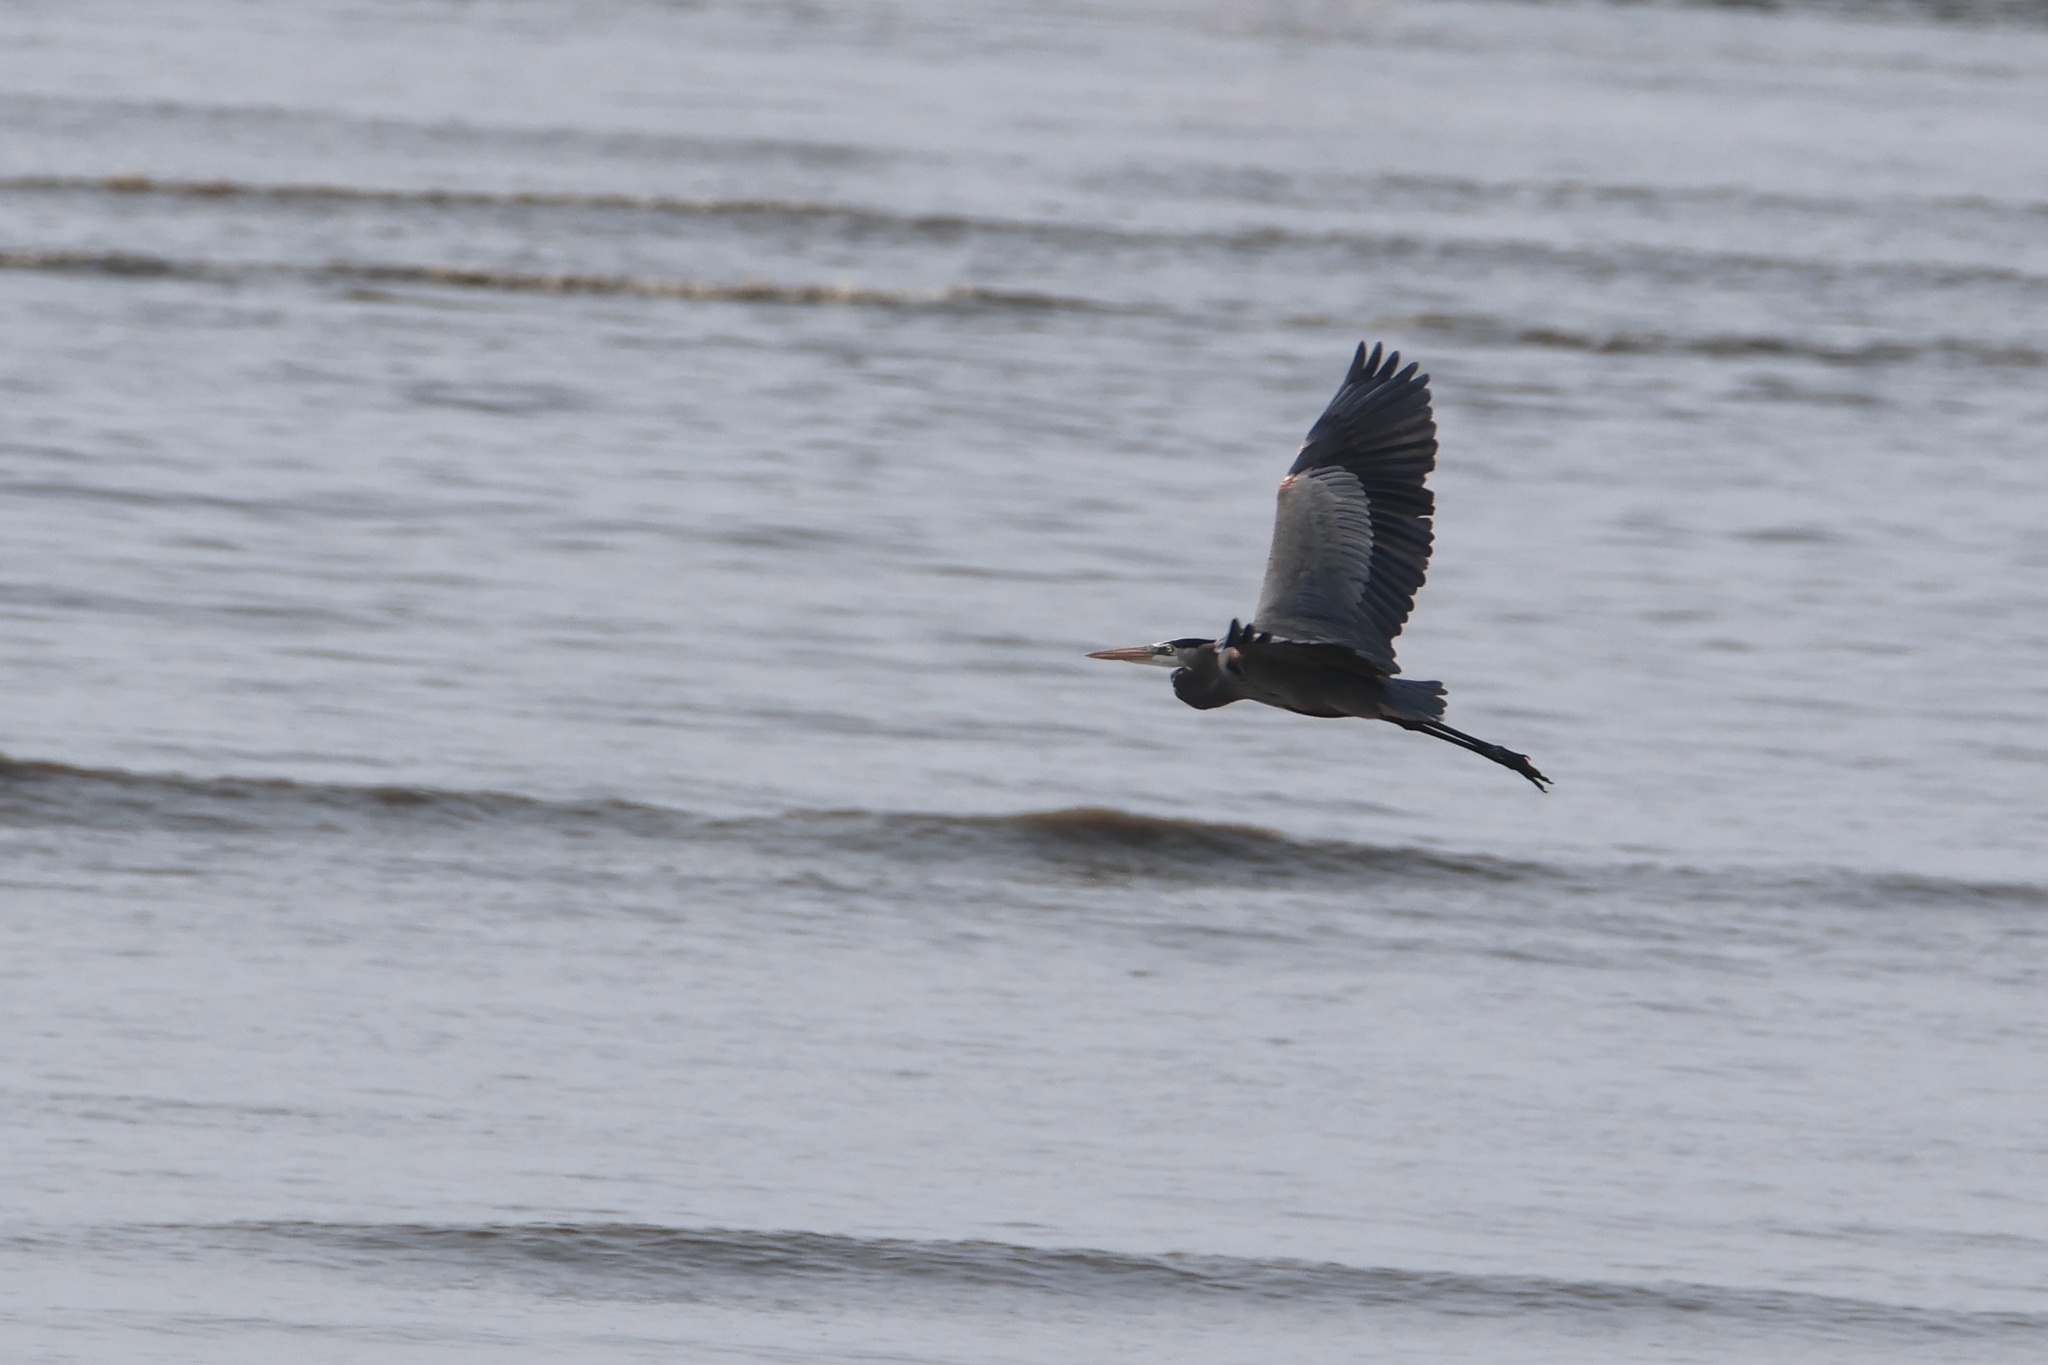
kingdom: Animalia
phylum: Chordata
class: Aves
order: Pelecaniformes
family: Ardeidae
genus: Ardea
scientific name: Ardea herodias
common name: Great blue heron
